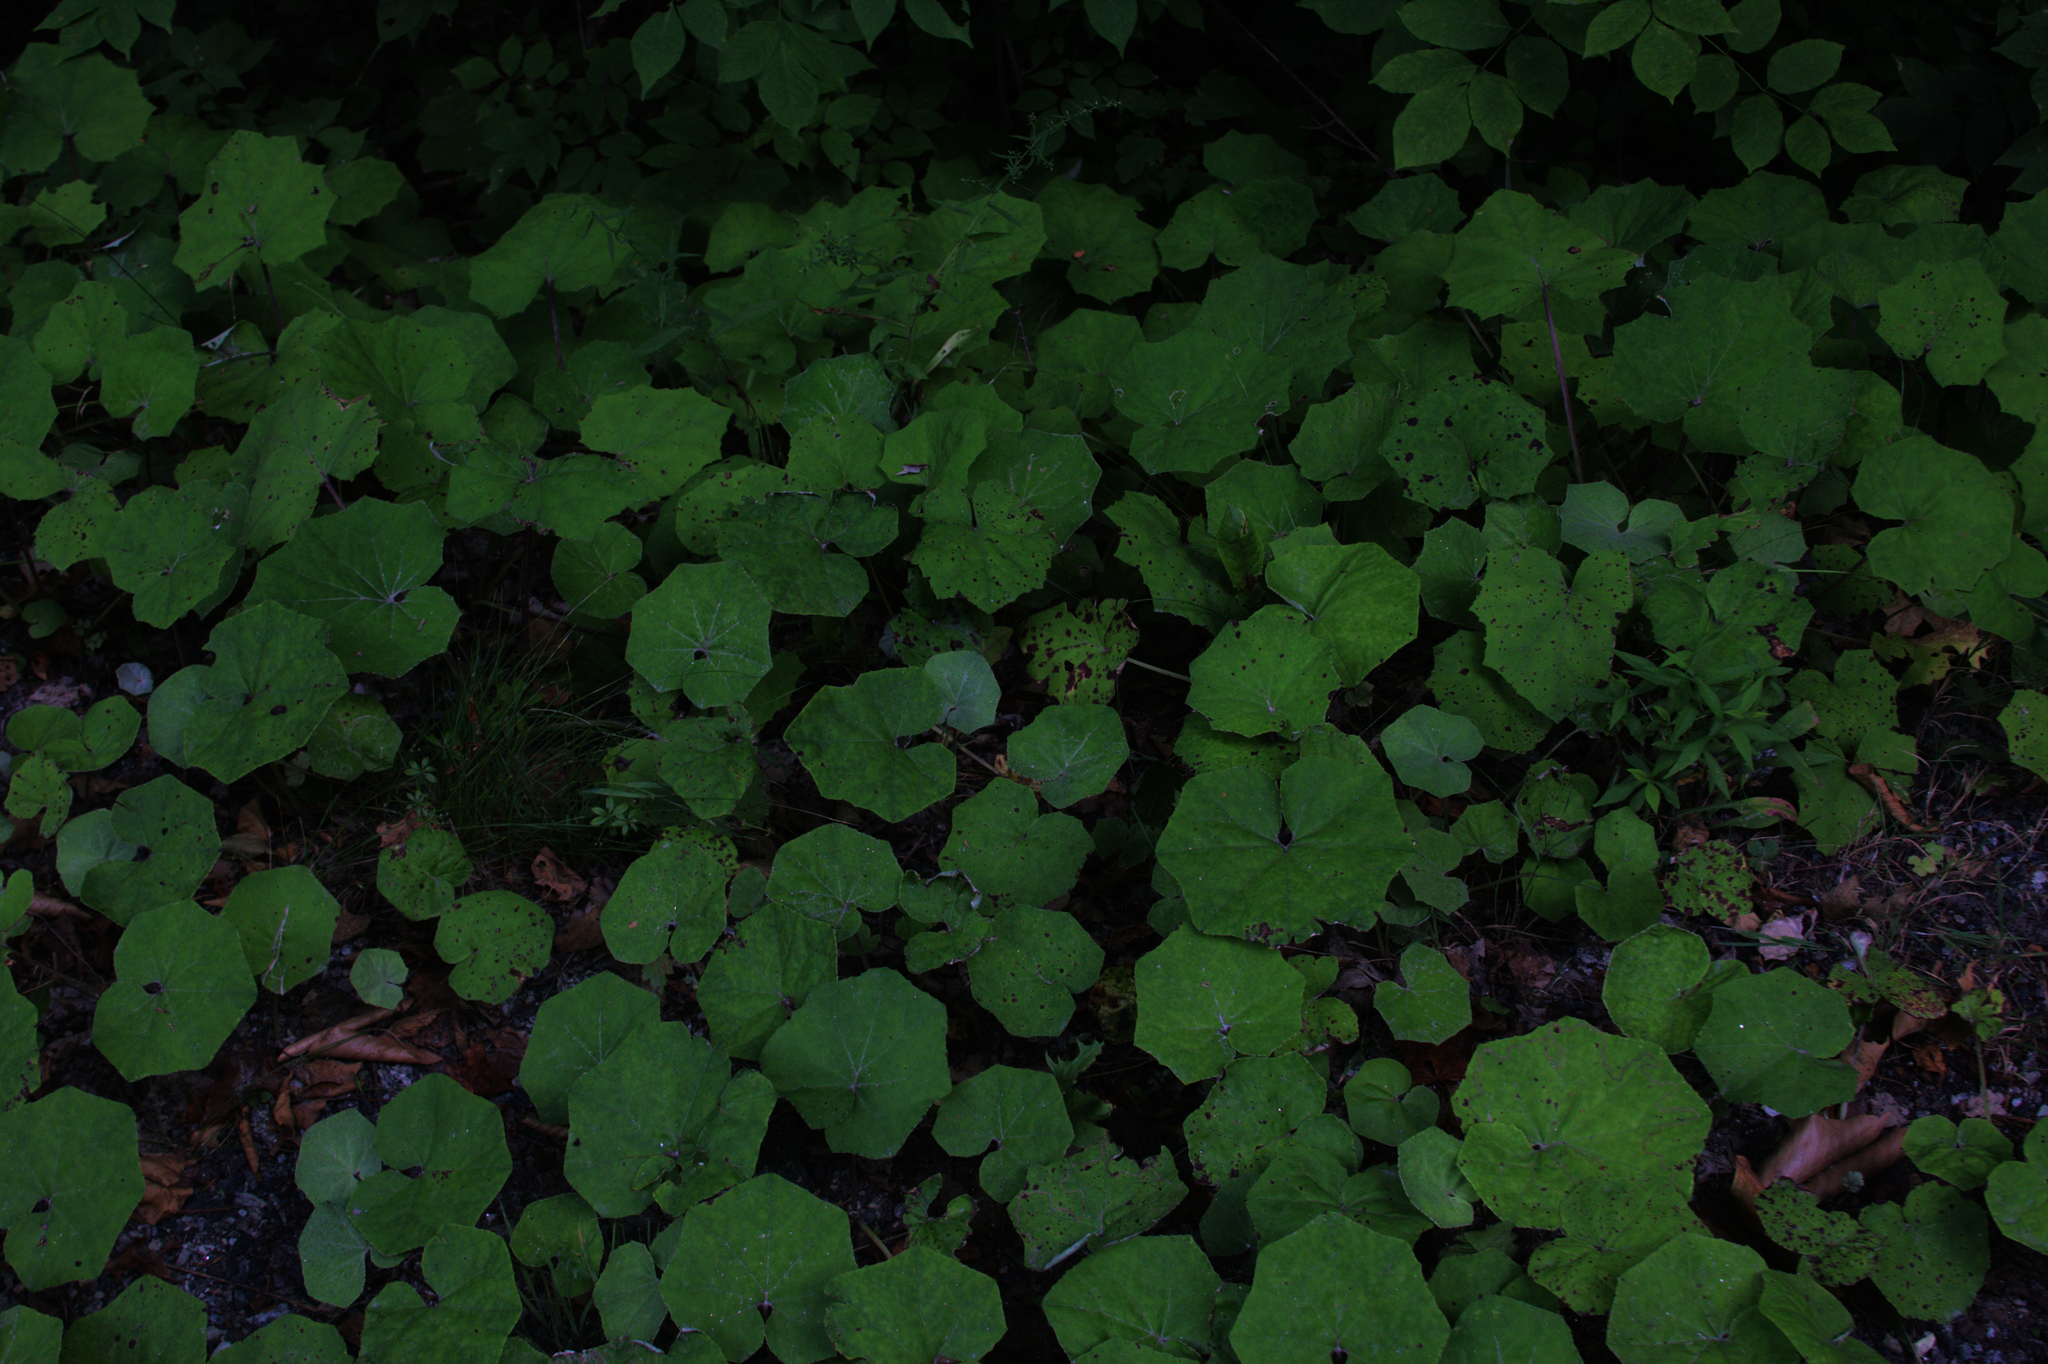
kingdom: Plantae
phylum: Tracheophyta
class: Magnoliopsida
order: Asterales
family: Asteraceae
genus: Tussilago
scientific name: Tussilago farfara
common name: Coltsfoot
